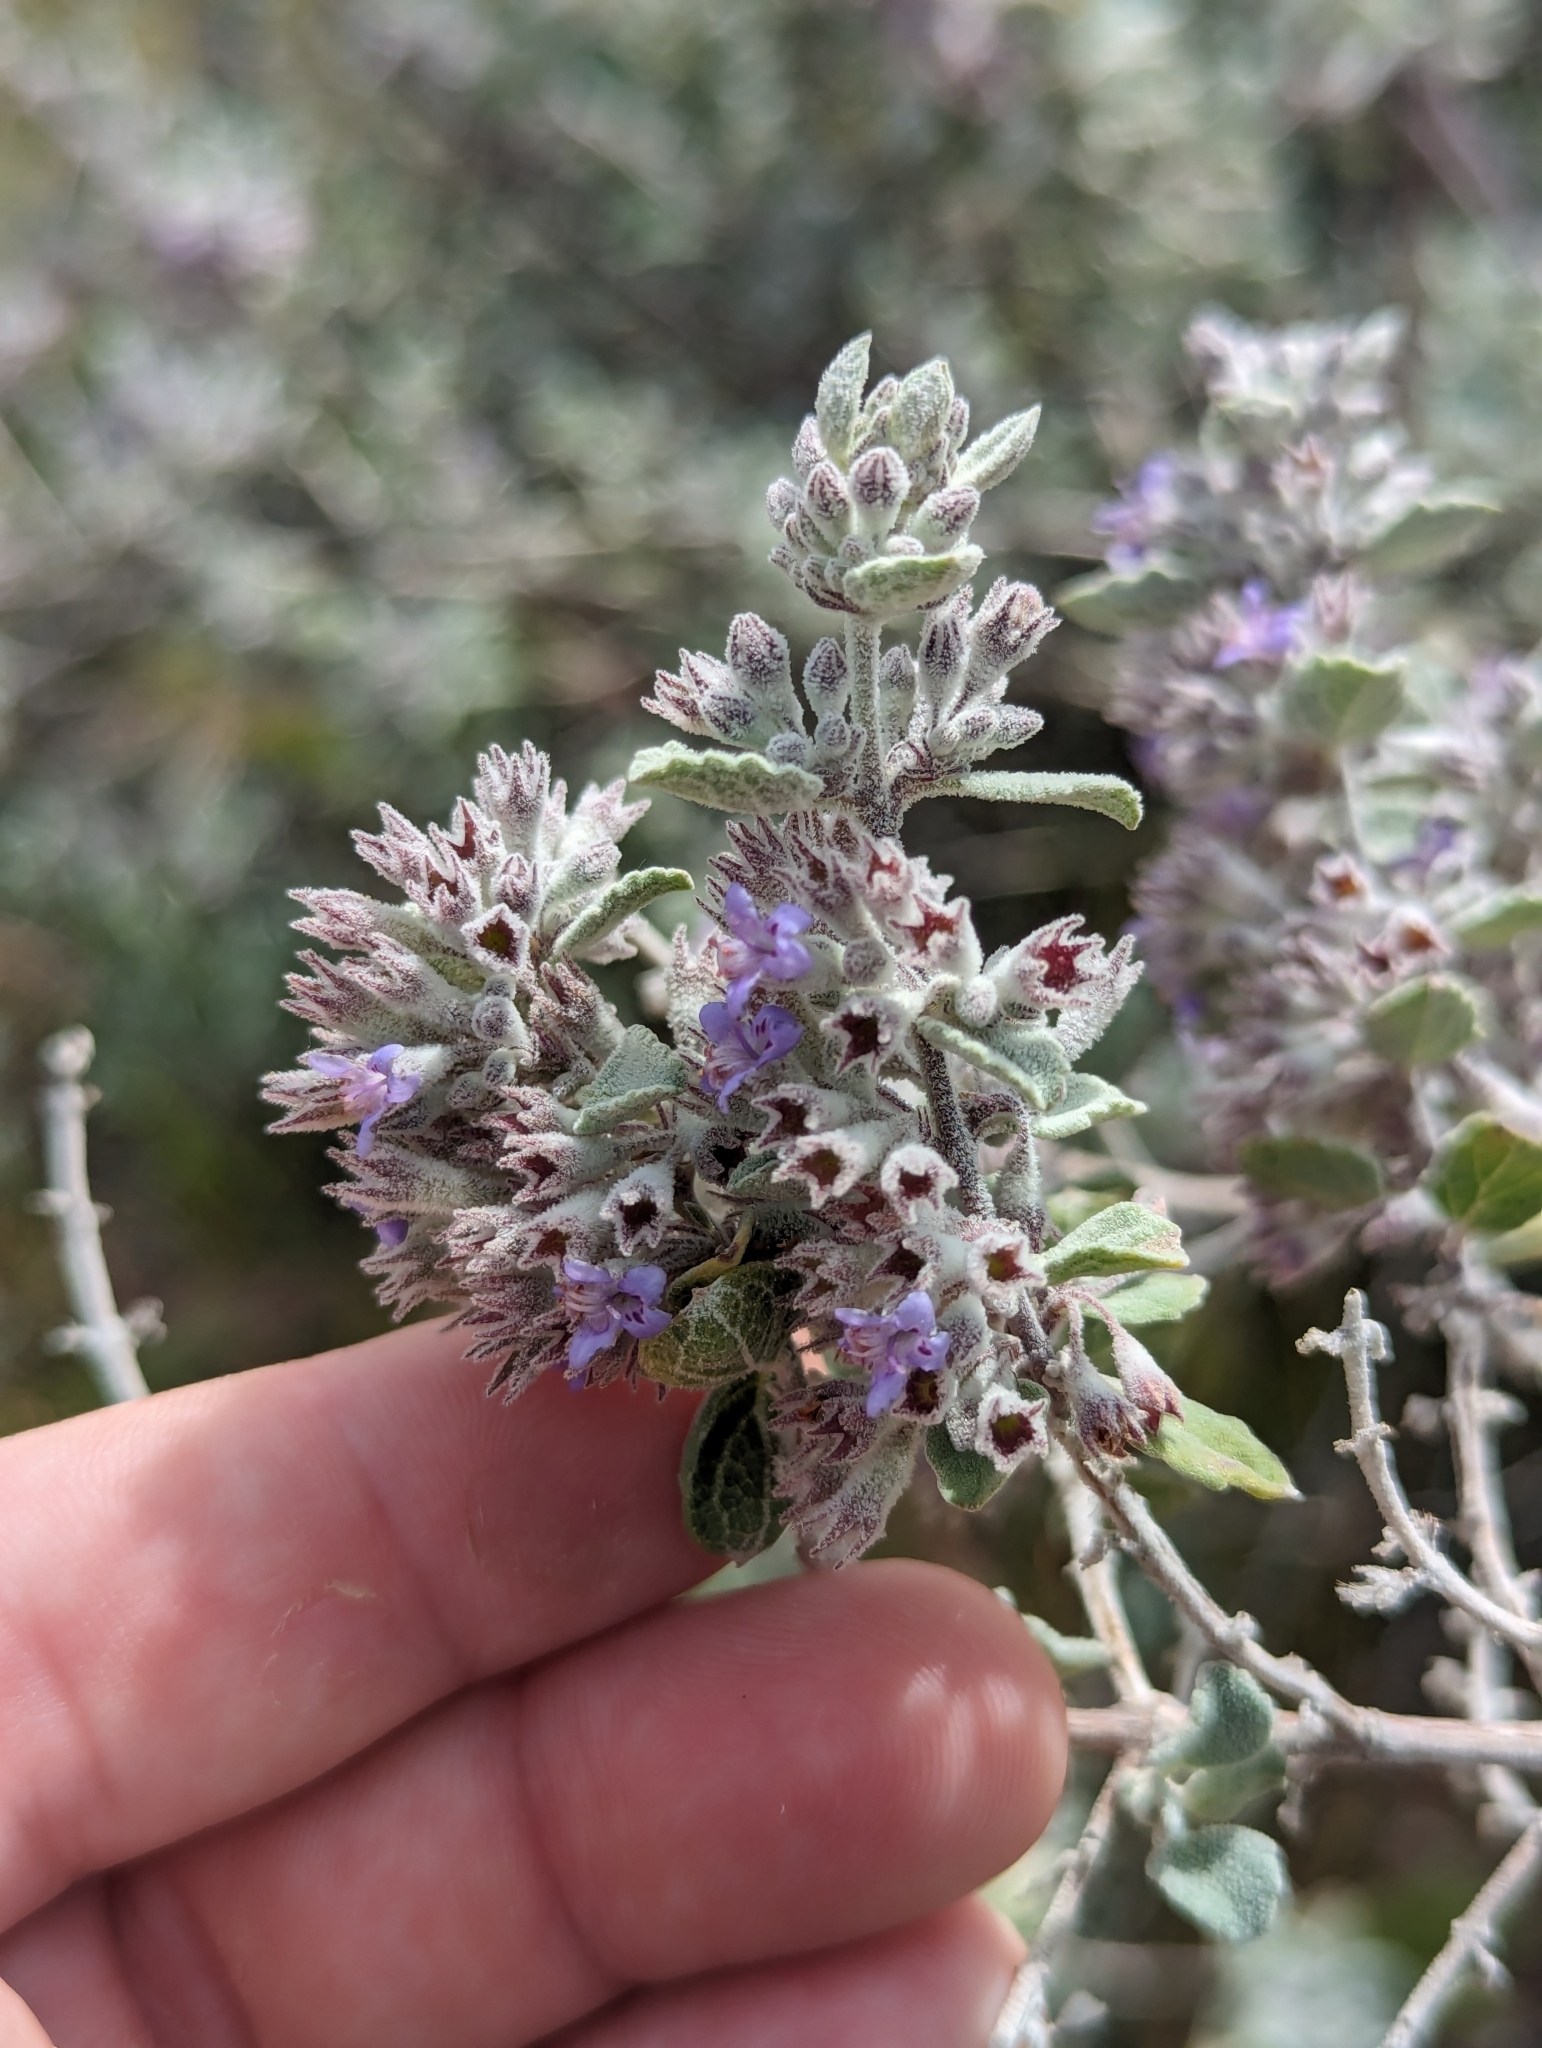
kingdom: Plantae
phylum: Tracheophyta
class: Magnoliopsida
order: Lamiales
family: Lamiaceae
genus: Condea
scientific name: Condea emoryi
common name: Chia
